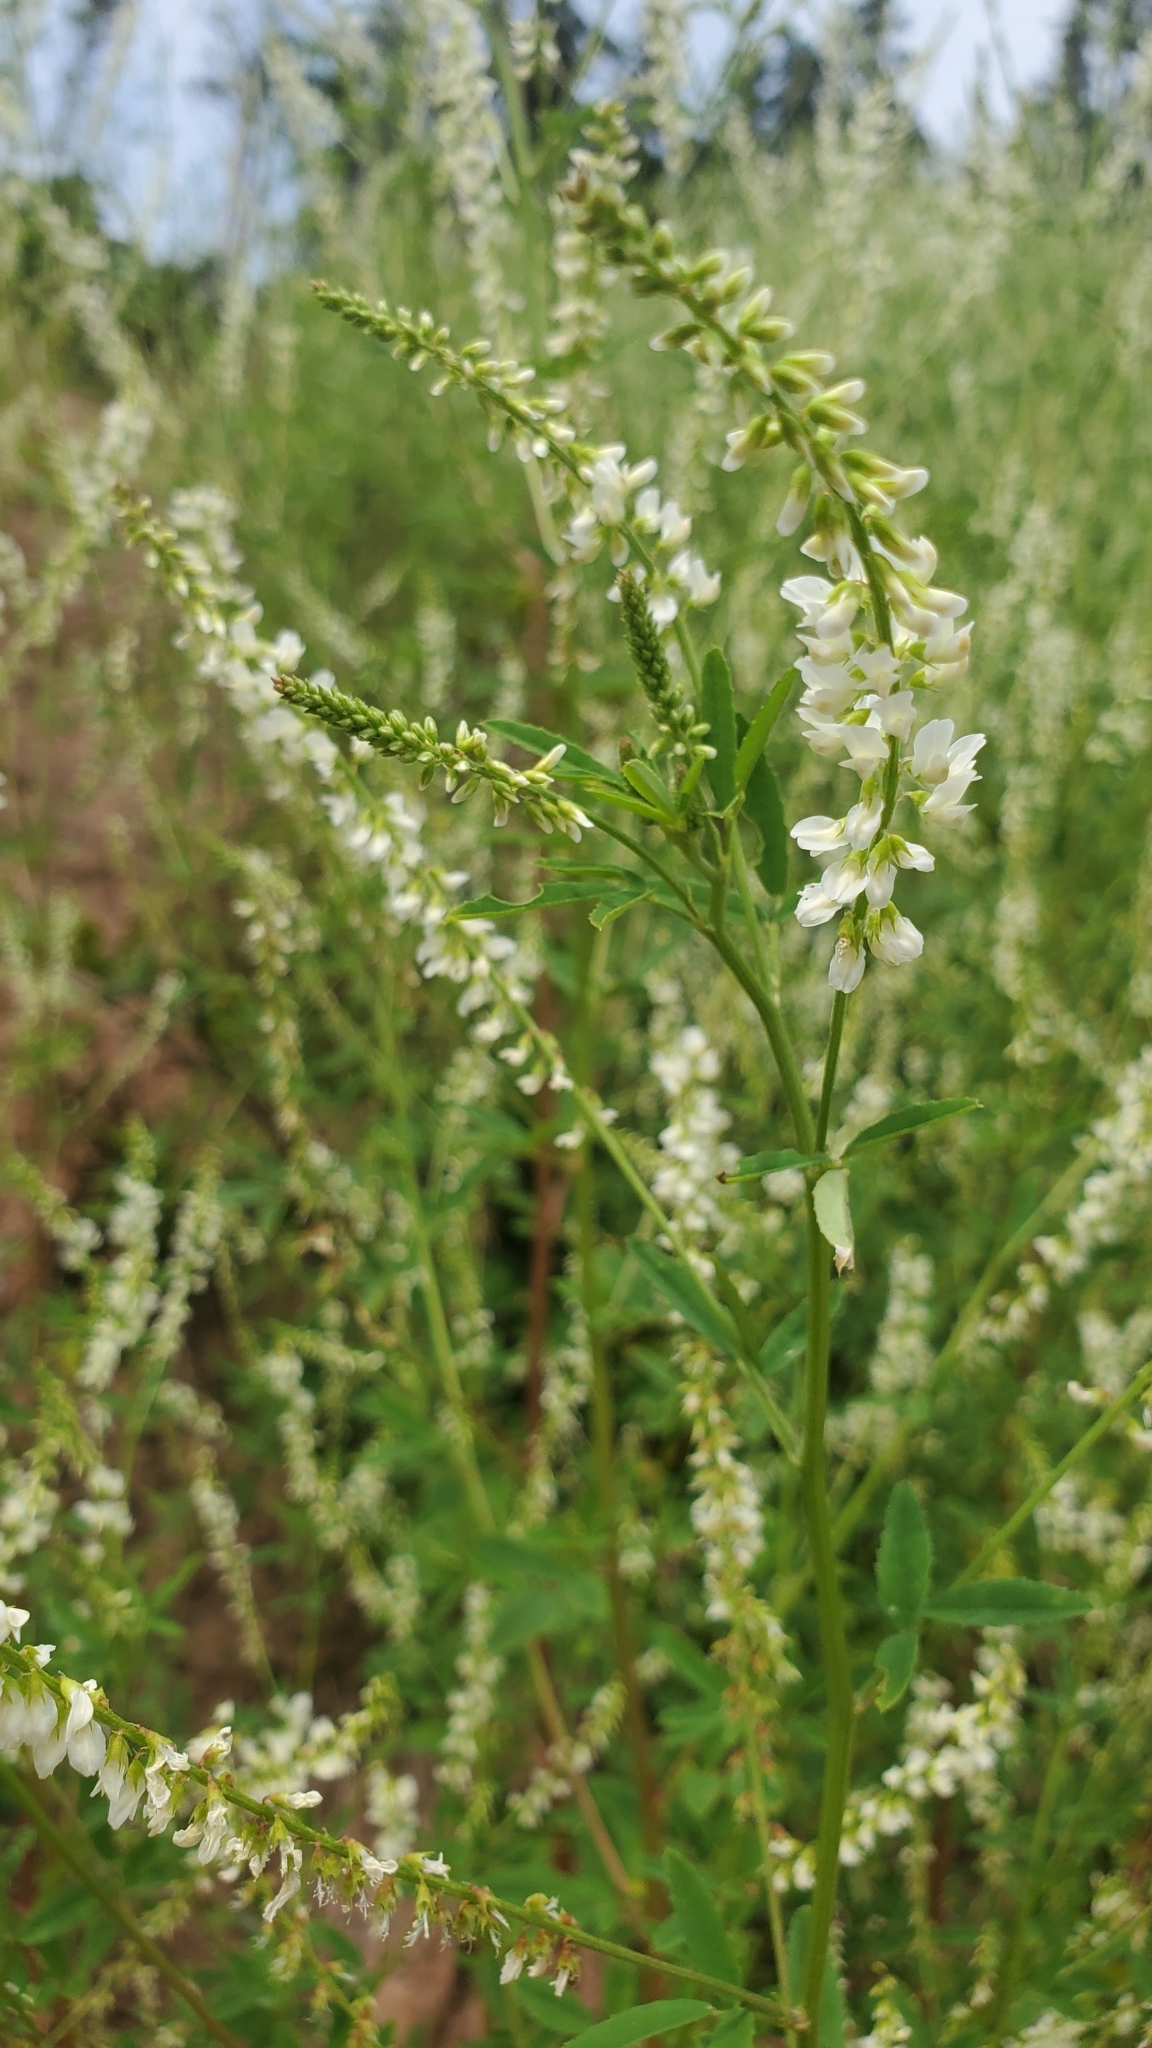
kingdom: Plantae
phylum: Tracheophyta
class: Magnoliopsida
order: Fabales
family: Fabaceae
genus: Melilotus
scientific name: Melilotus albus
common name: White melilot
